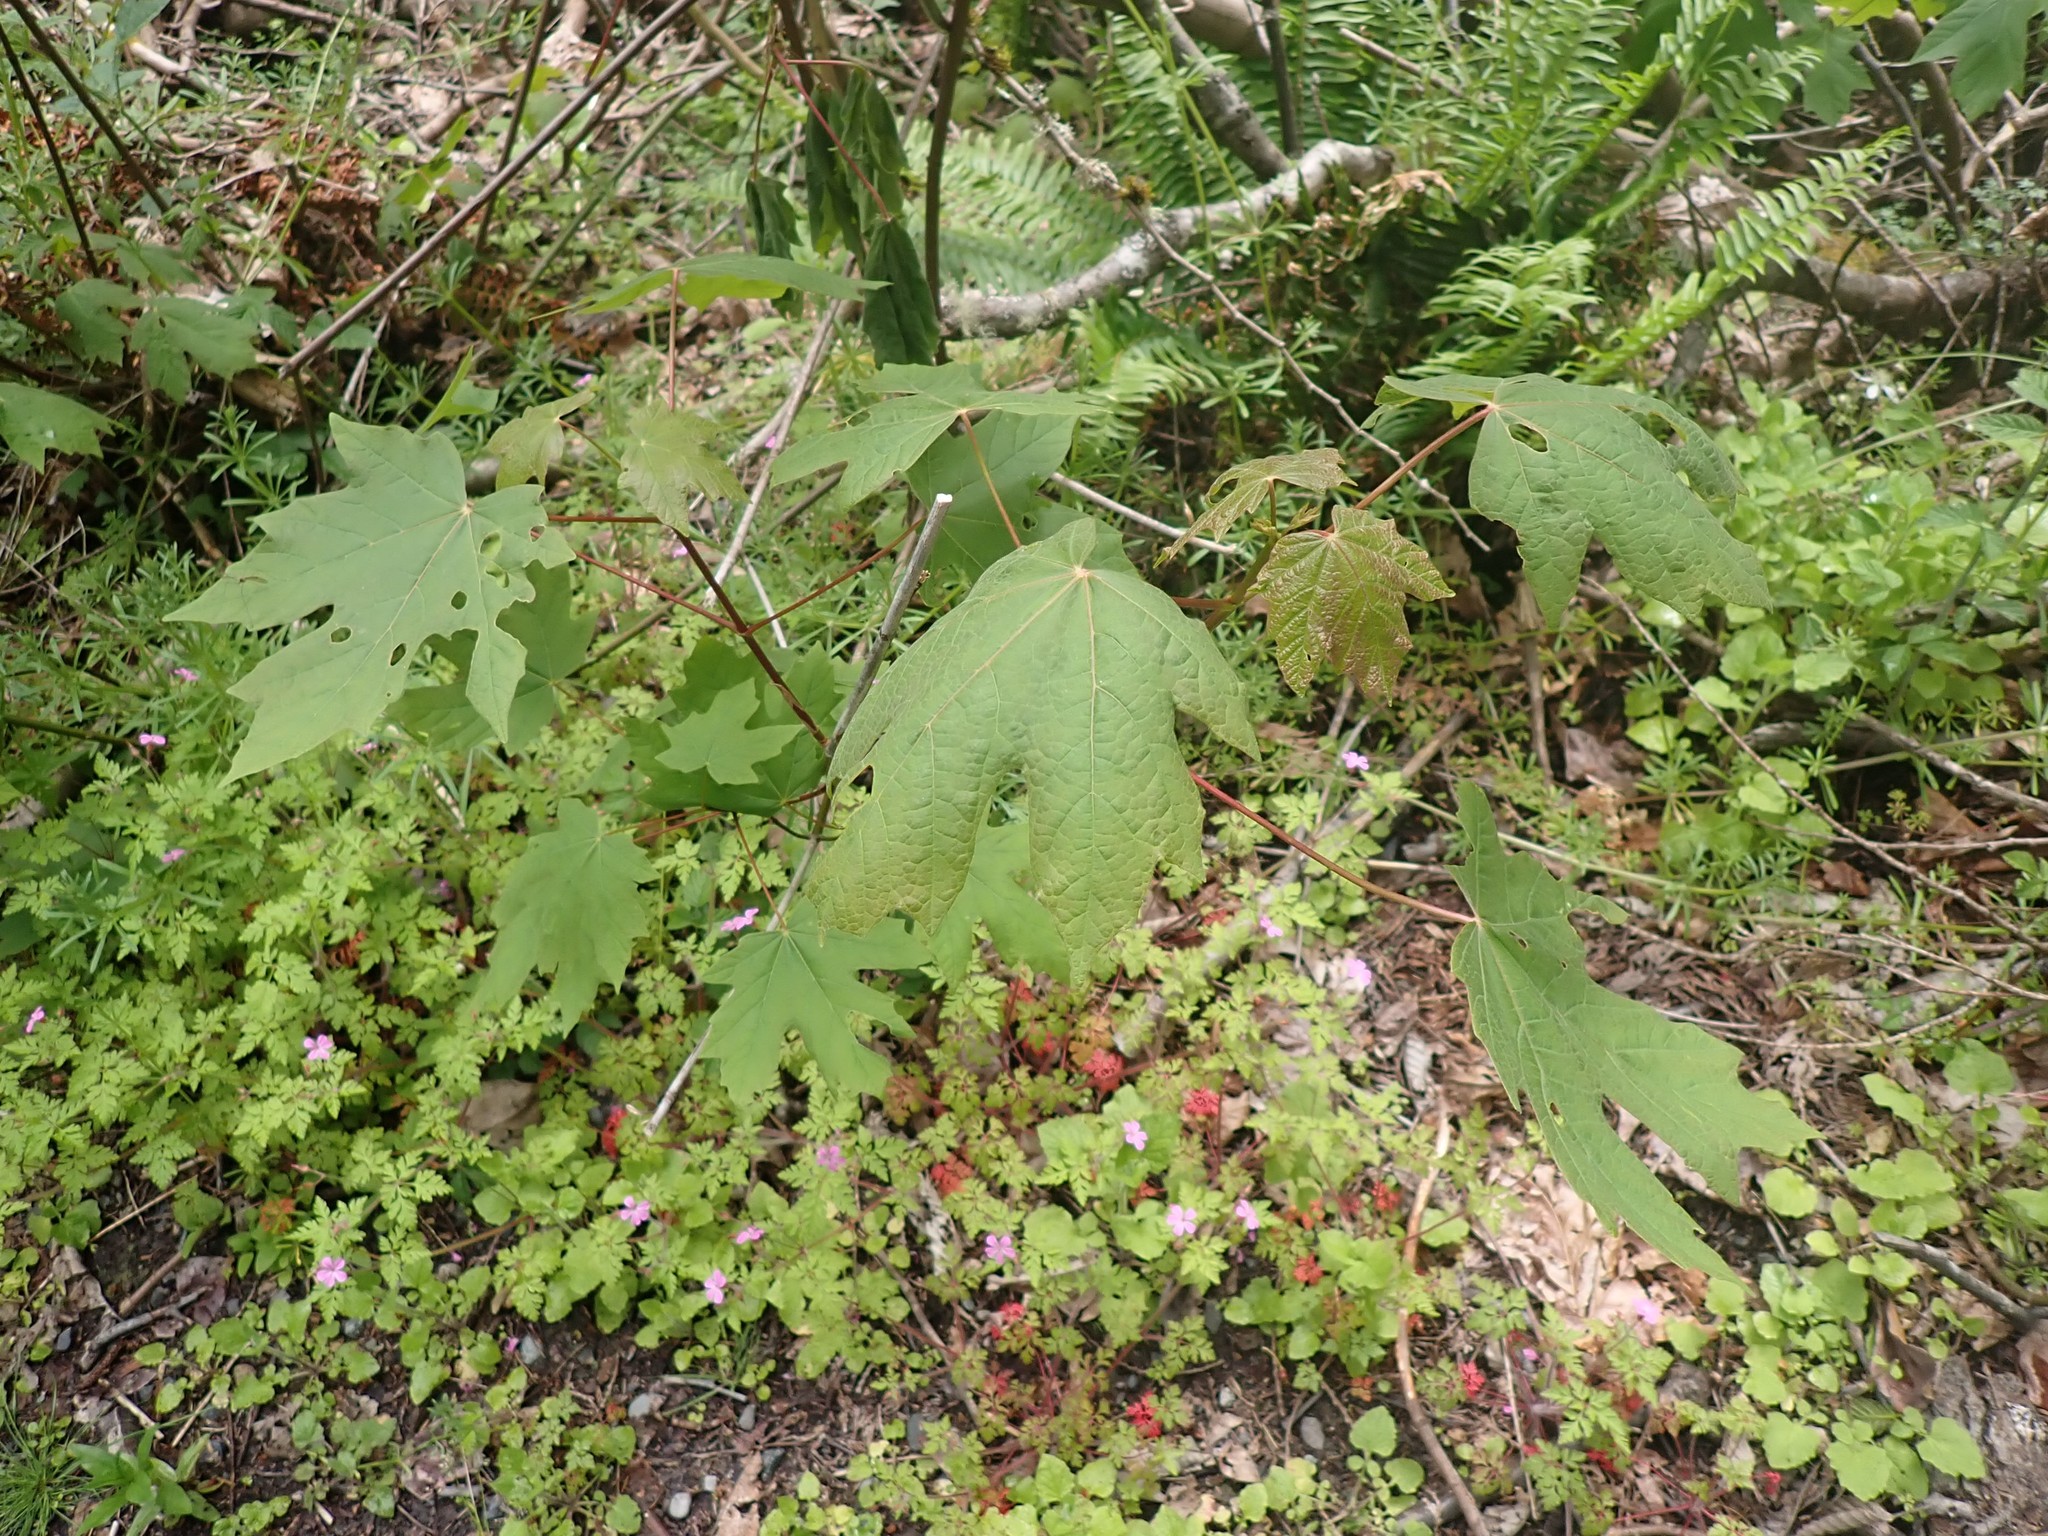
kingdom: Plantae
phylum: Tracheophyta
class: Magnoliopsida
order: Sapindales
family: Sapindaceae
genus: Acer
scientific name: Acer macrophyllum
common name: Oregon maple
